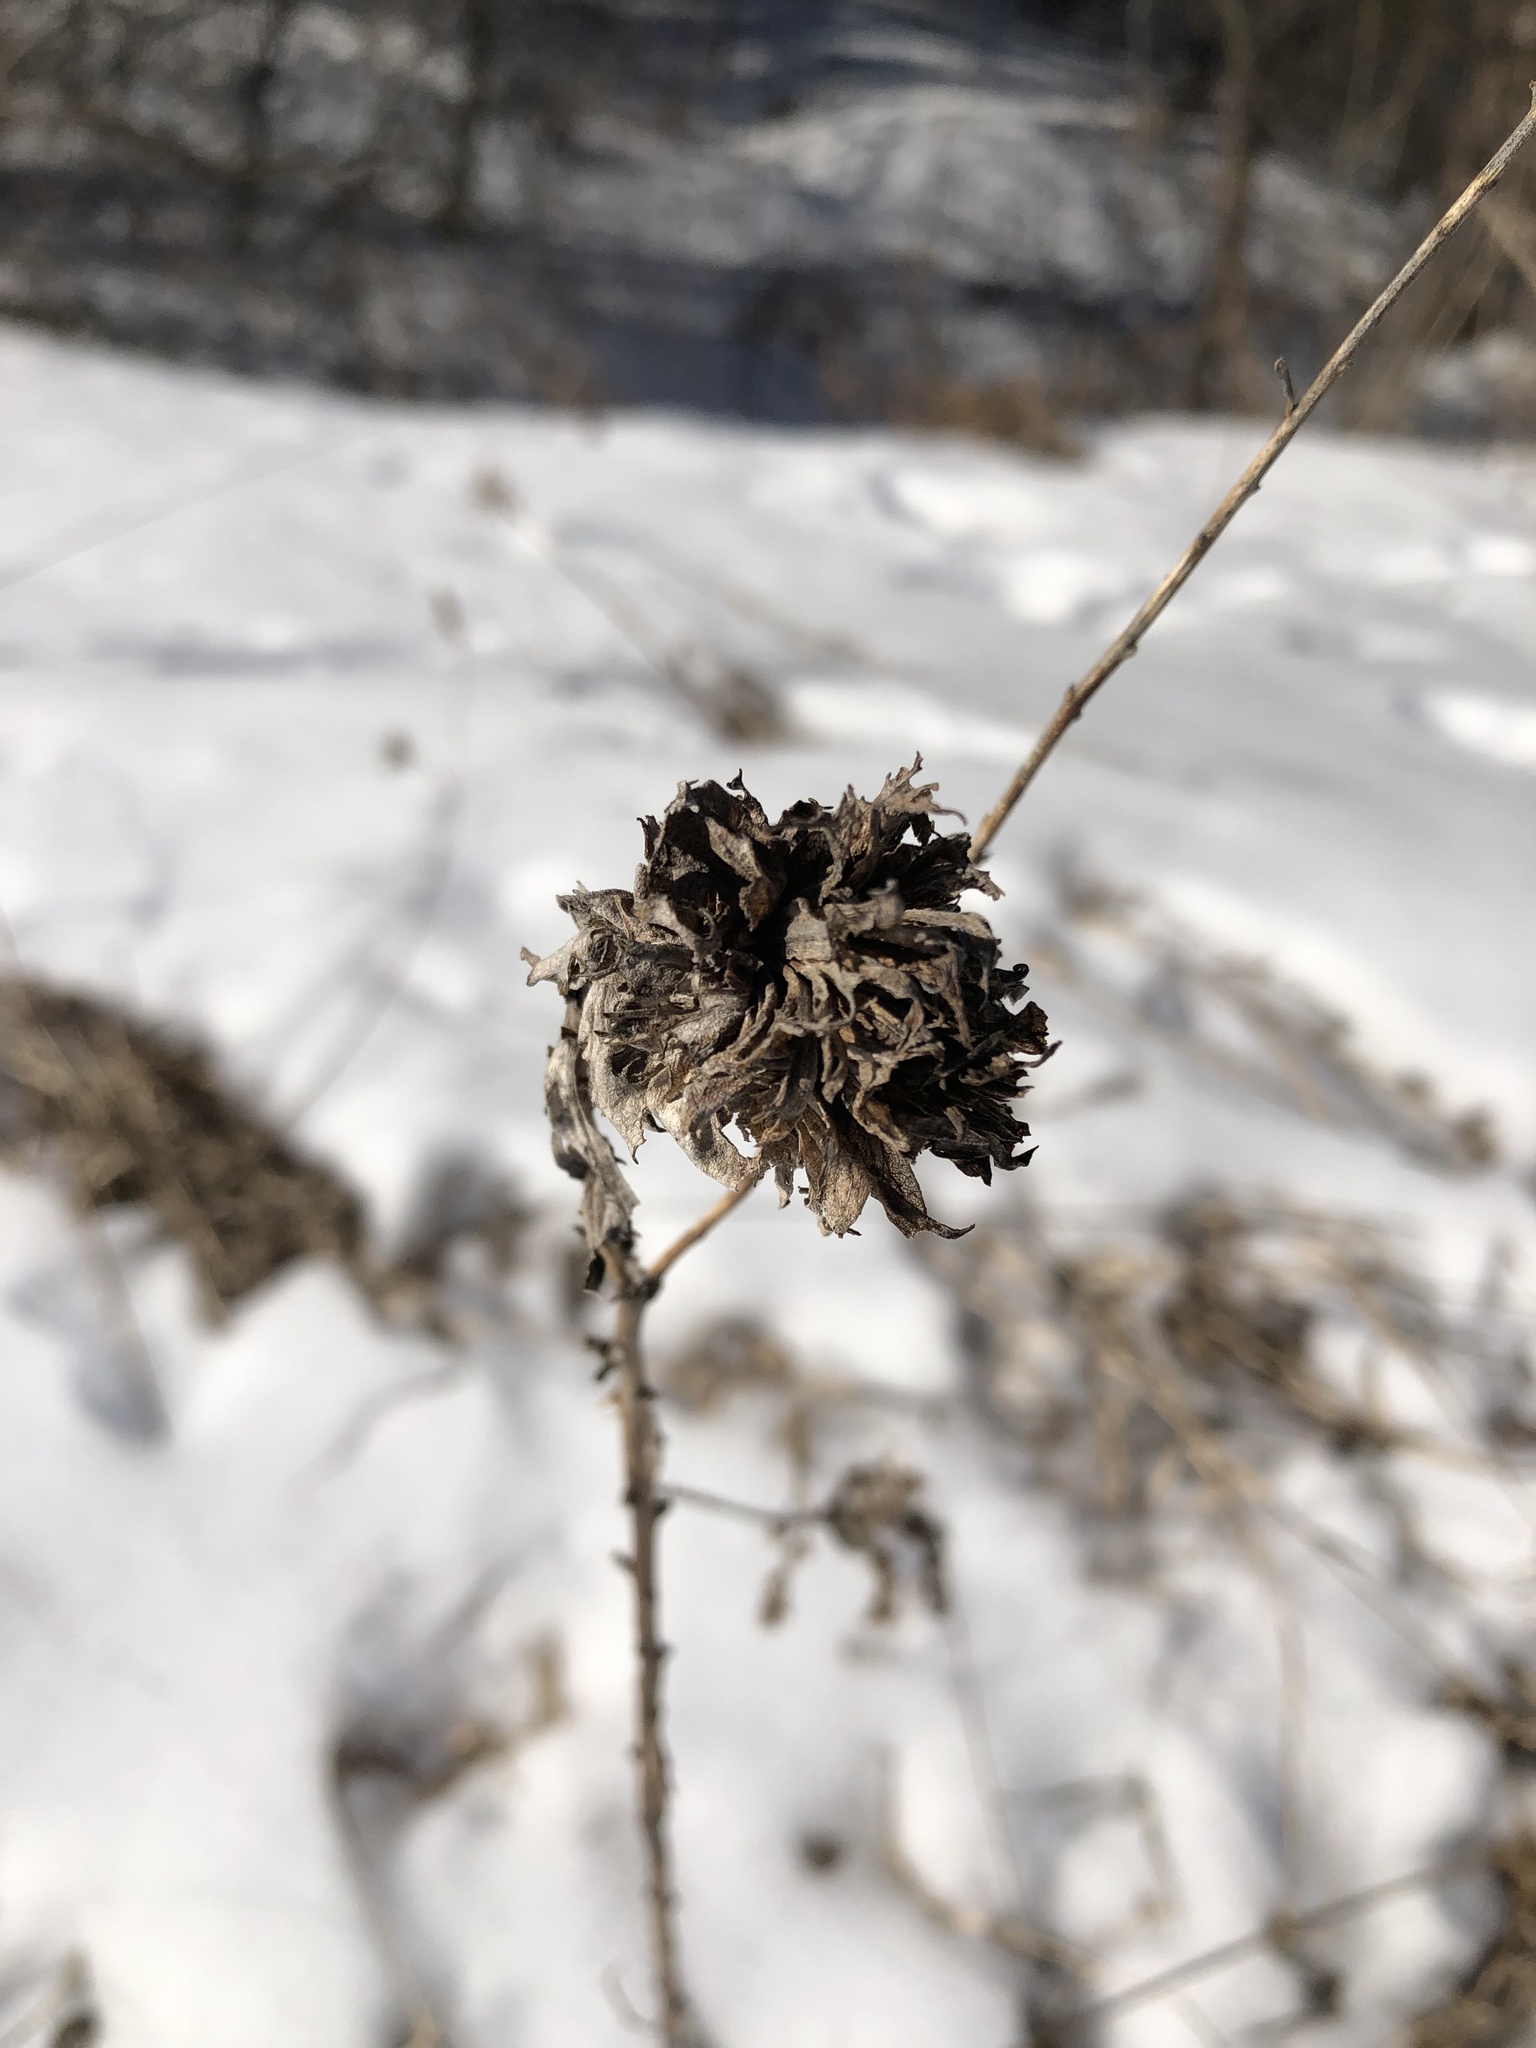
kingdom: Animalia
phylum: Arthropoda
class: Insecta
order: Diptera
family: Cecidomyiidae
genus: Rhopalomyia
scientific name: Rhopalomyia solidaginis
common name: Goldenrod bunch gall midge
